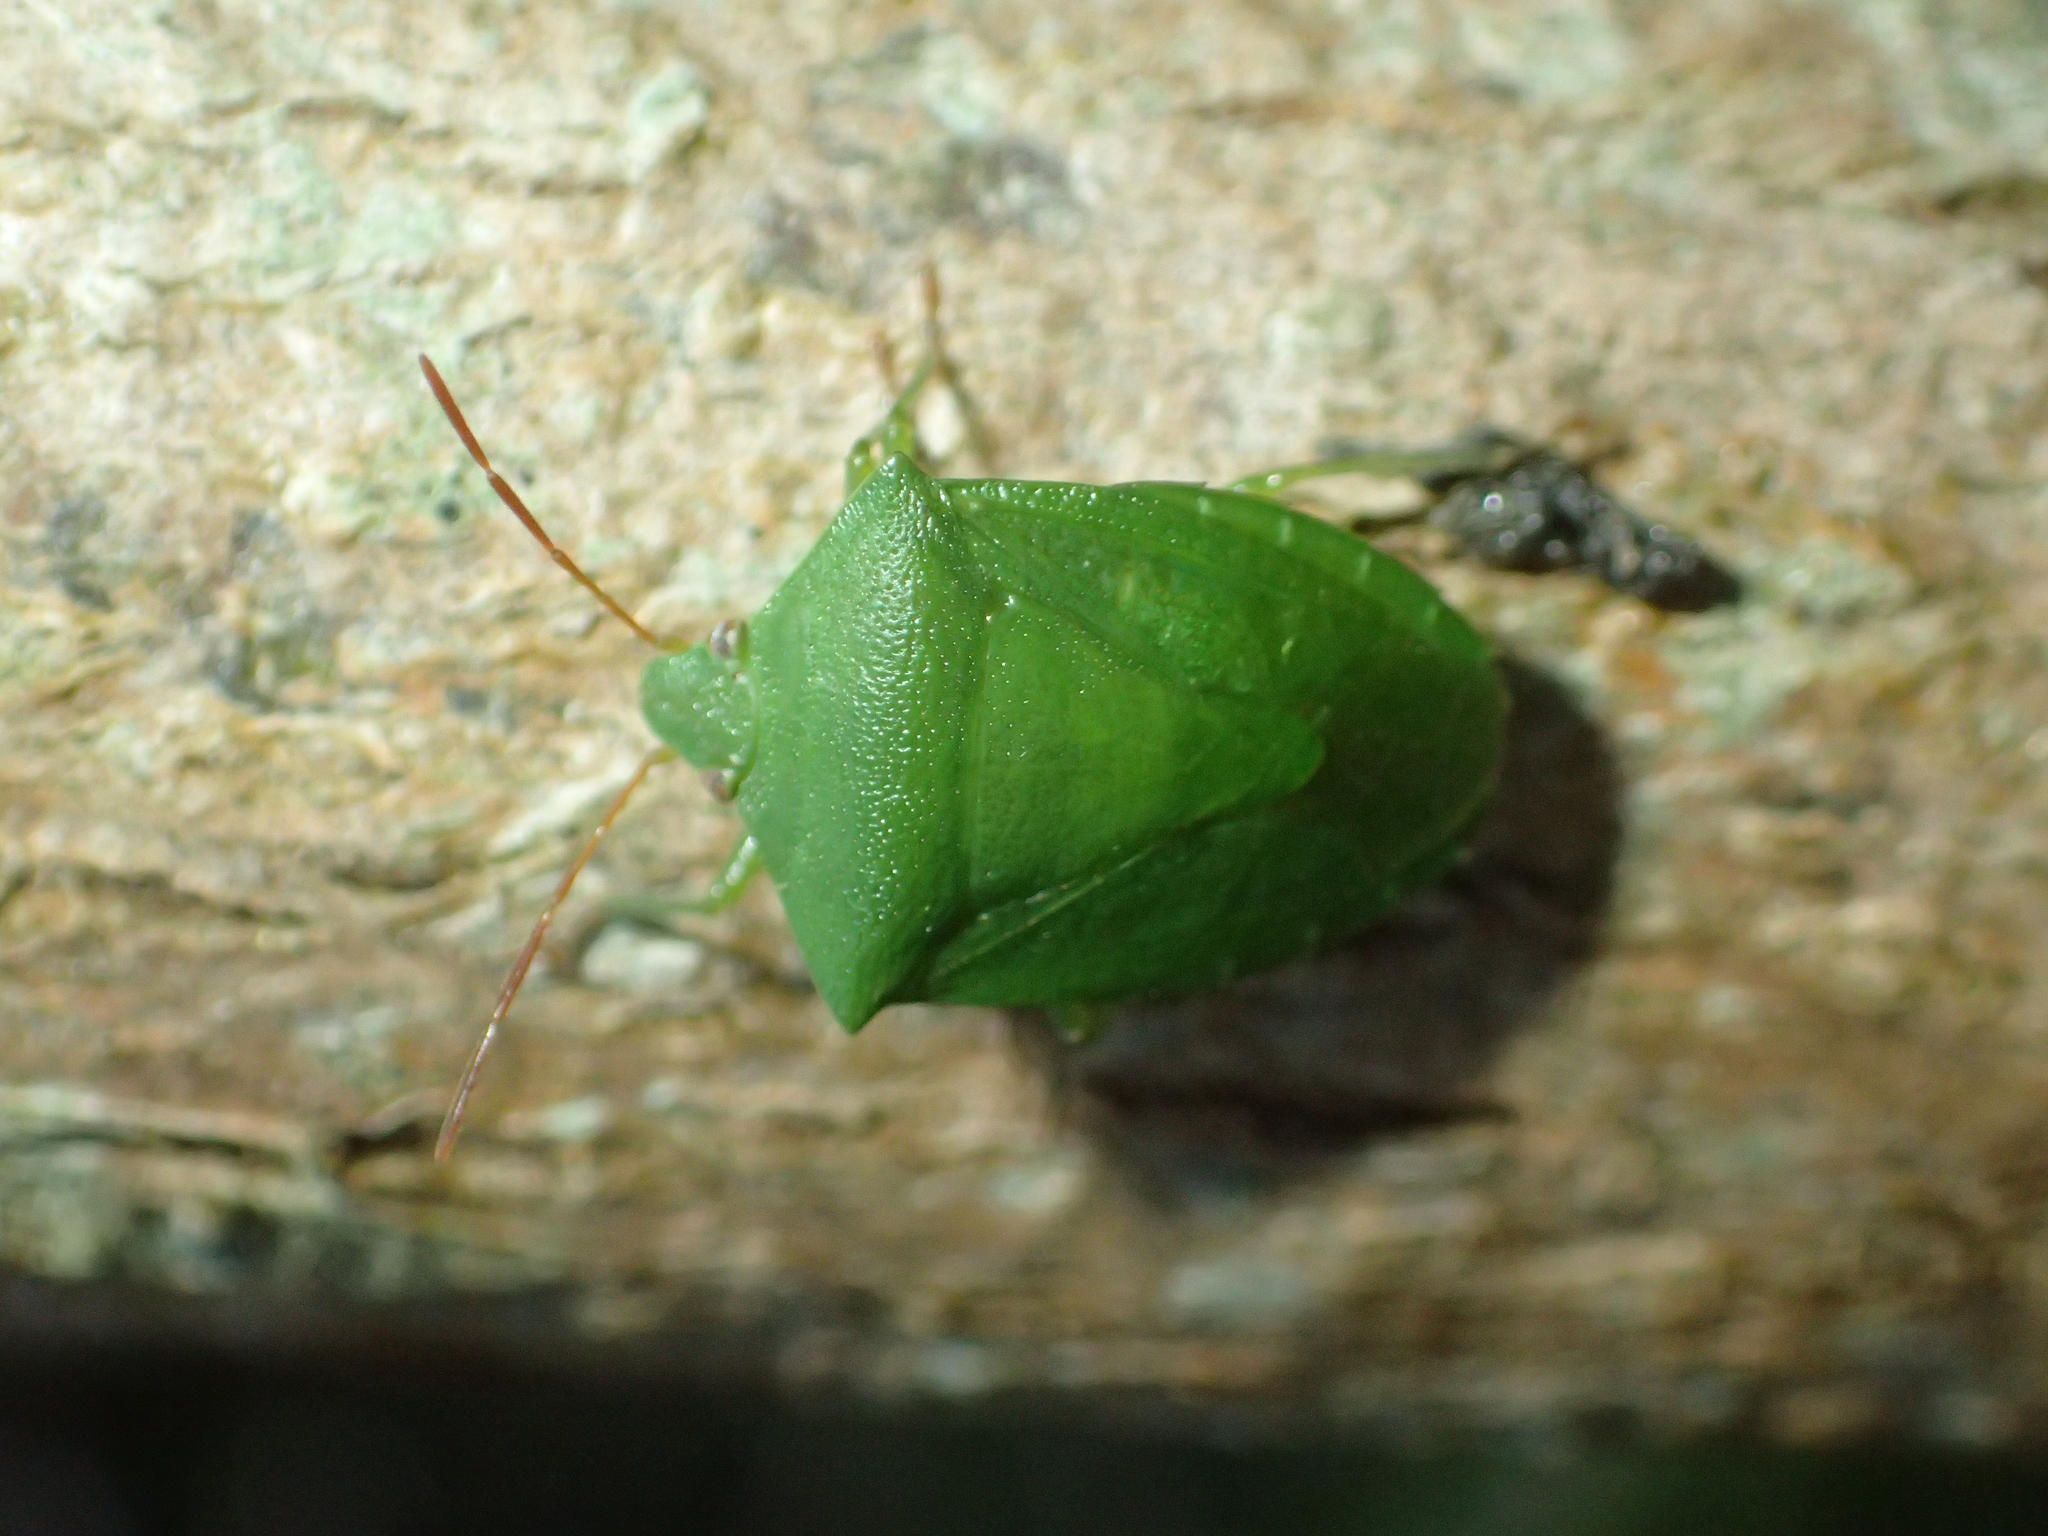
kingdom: Animalia
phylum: Arthropoda
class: Insecta
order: Hemiptera
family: Pentatomidae
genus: Cuspicona
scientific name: Cuspicona simplex
